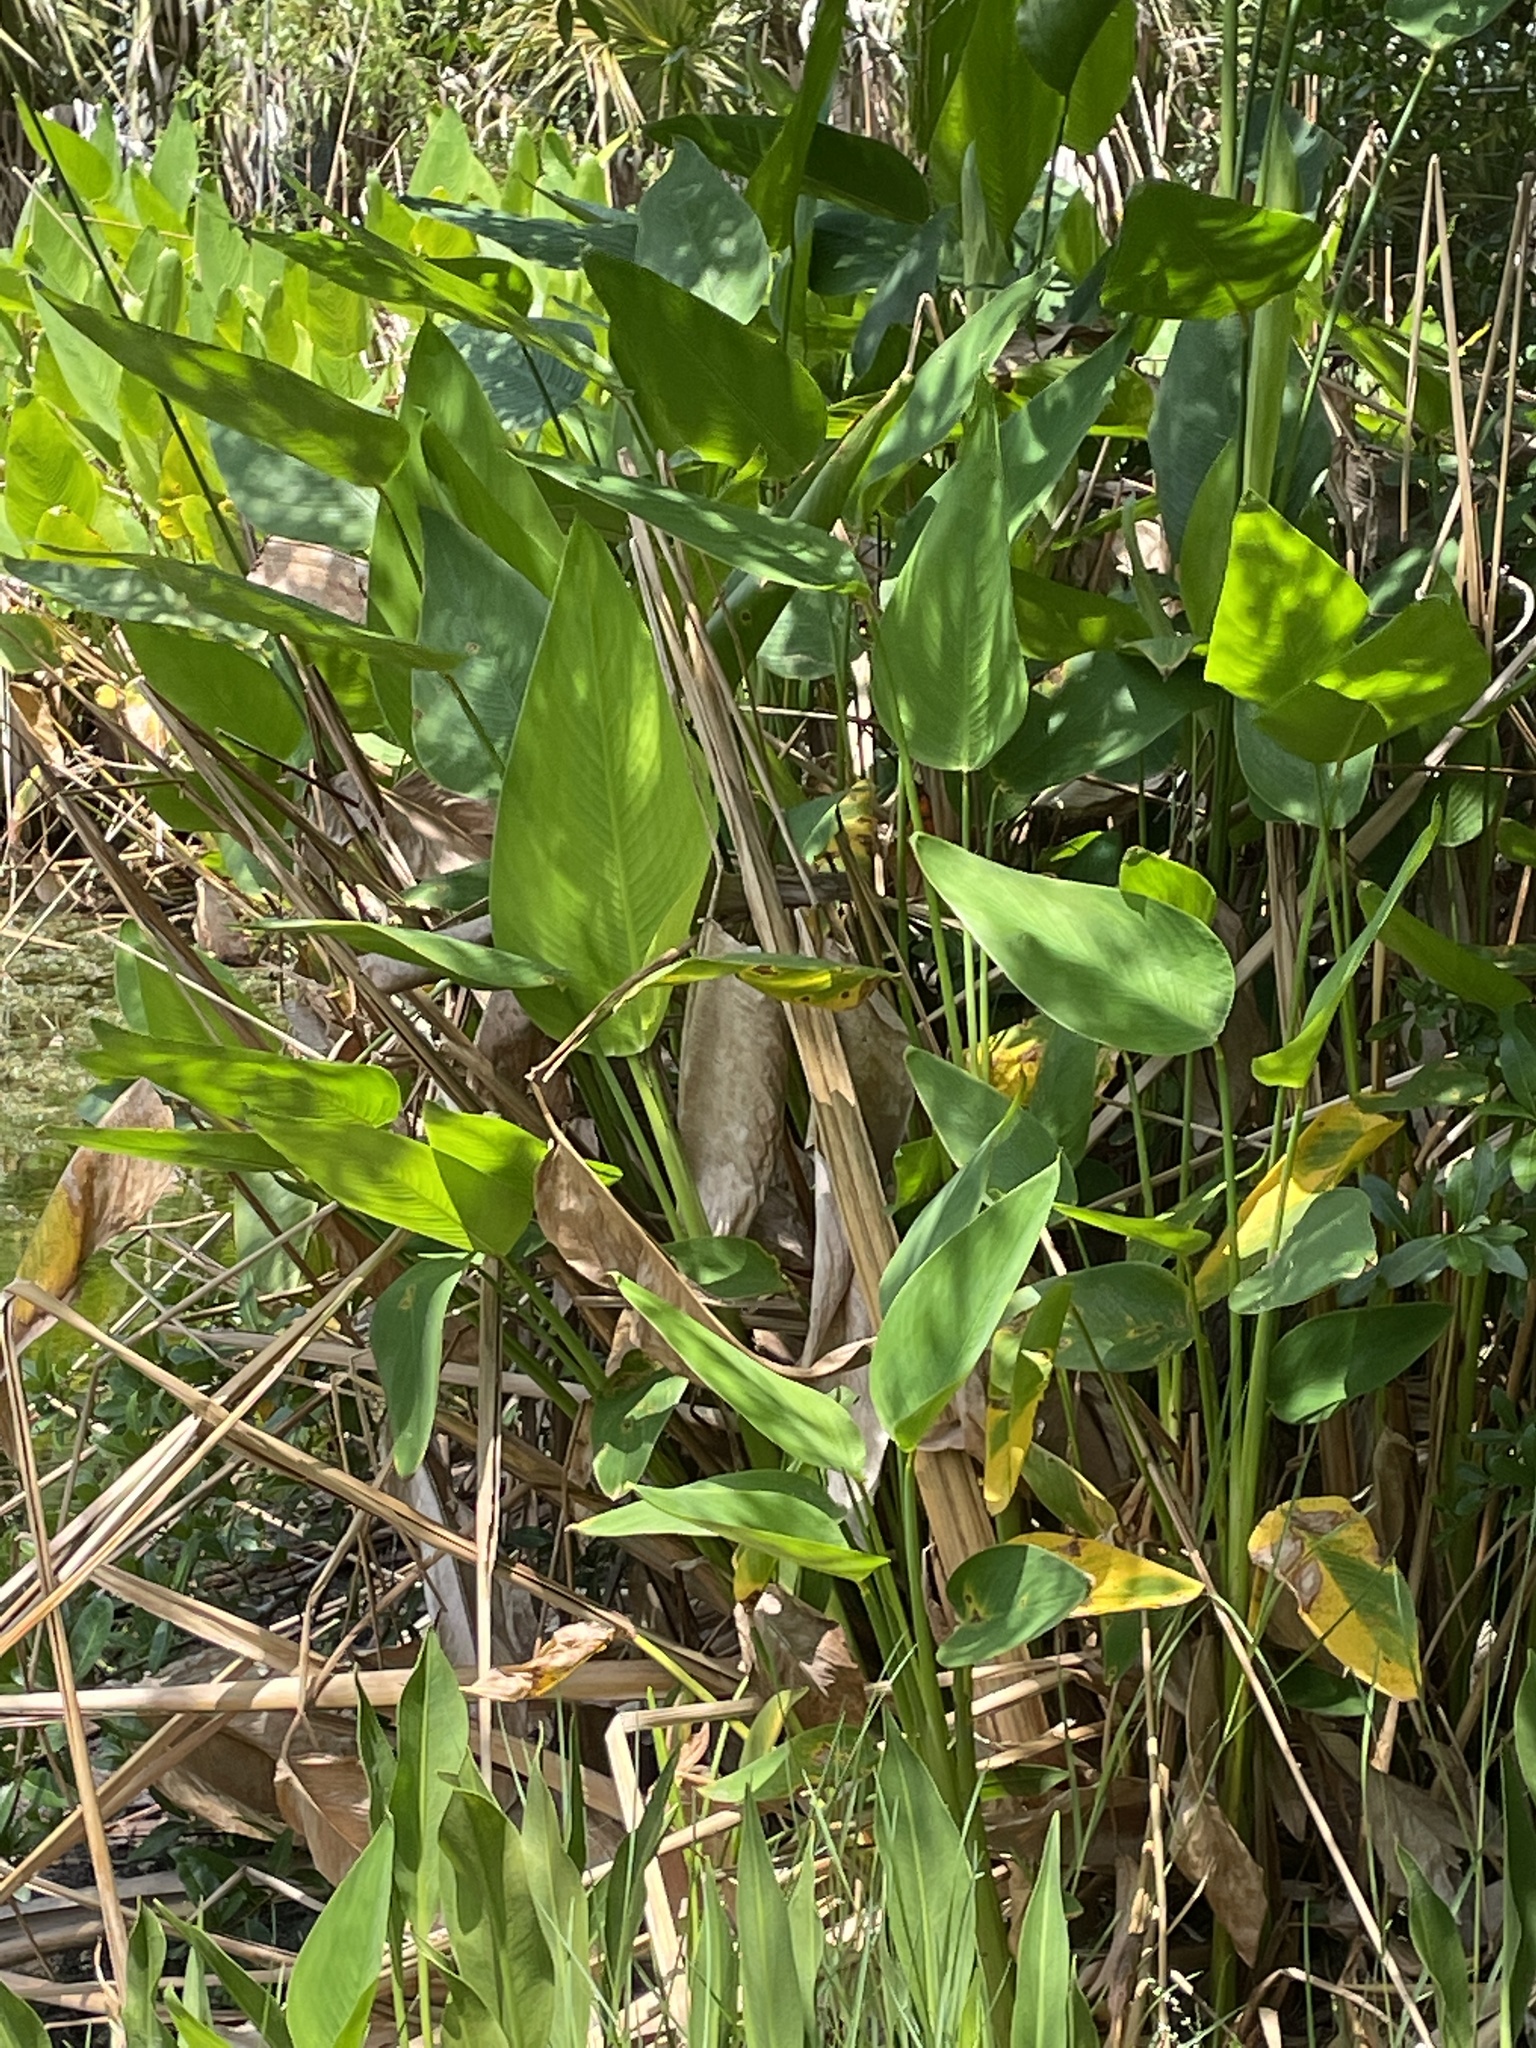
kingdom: Plantae
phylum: Tracheophyta
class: Liliopsida
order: Zingiberales
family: Marantaceae
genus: Thalia
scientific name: Thalia geniculata
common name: Arrowroot
